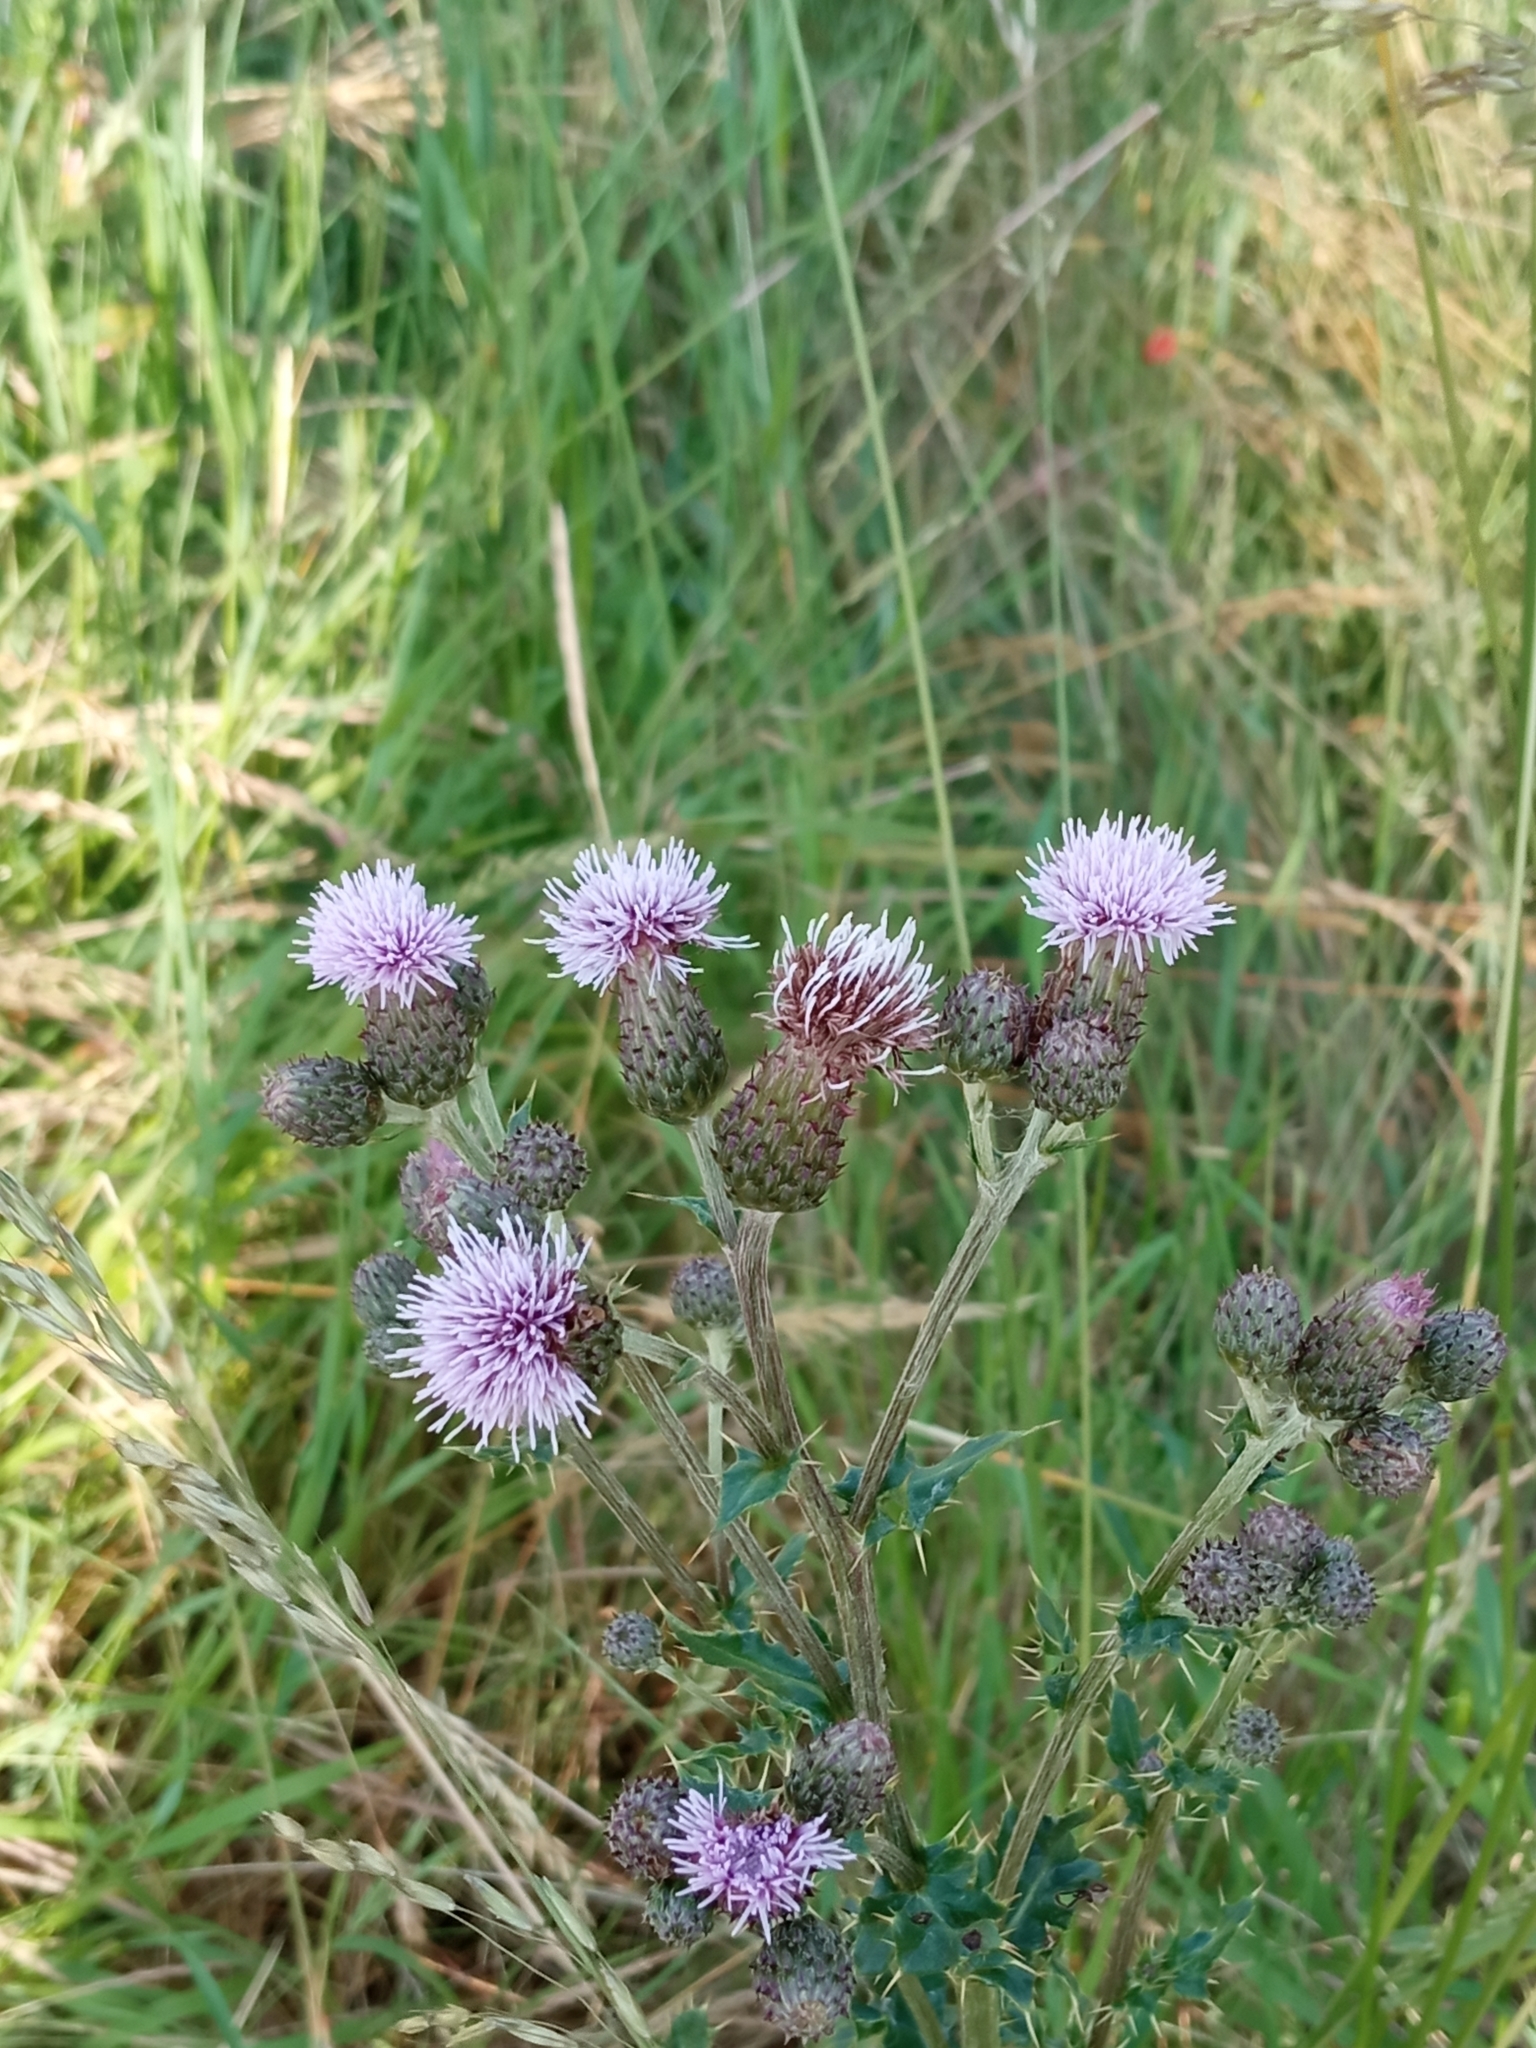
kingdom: Plantae
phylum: Tracheophyta
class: Magnoliopsida
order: Asterales
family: Asteraceae
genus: Cirsium
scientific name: Cirsium arvense
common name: Creeping thistle
